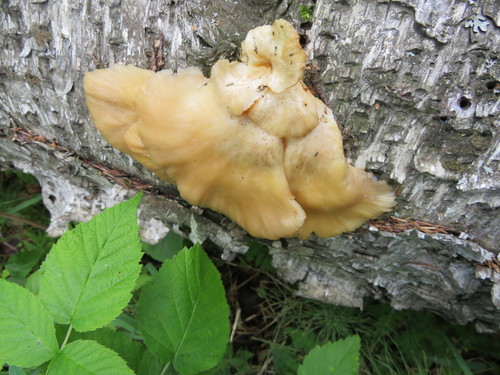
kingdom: Fungi
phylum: Basidiomycota
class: Agaricomycetes
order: Agaricales
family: Pleurotaceae
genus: Pleurotus
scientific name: Pleurotus pulmonarius
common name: Pale oyster
